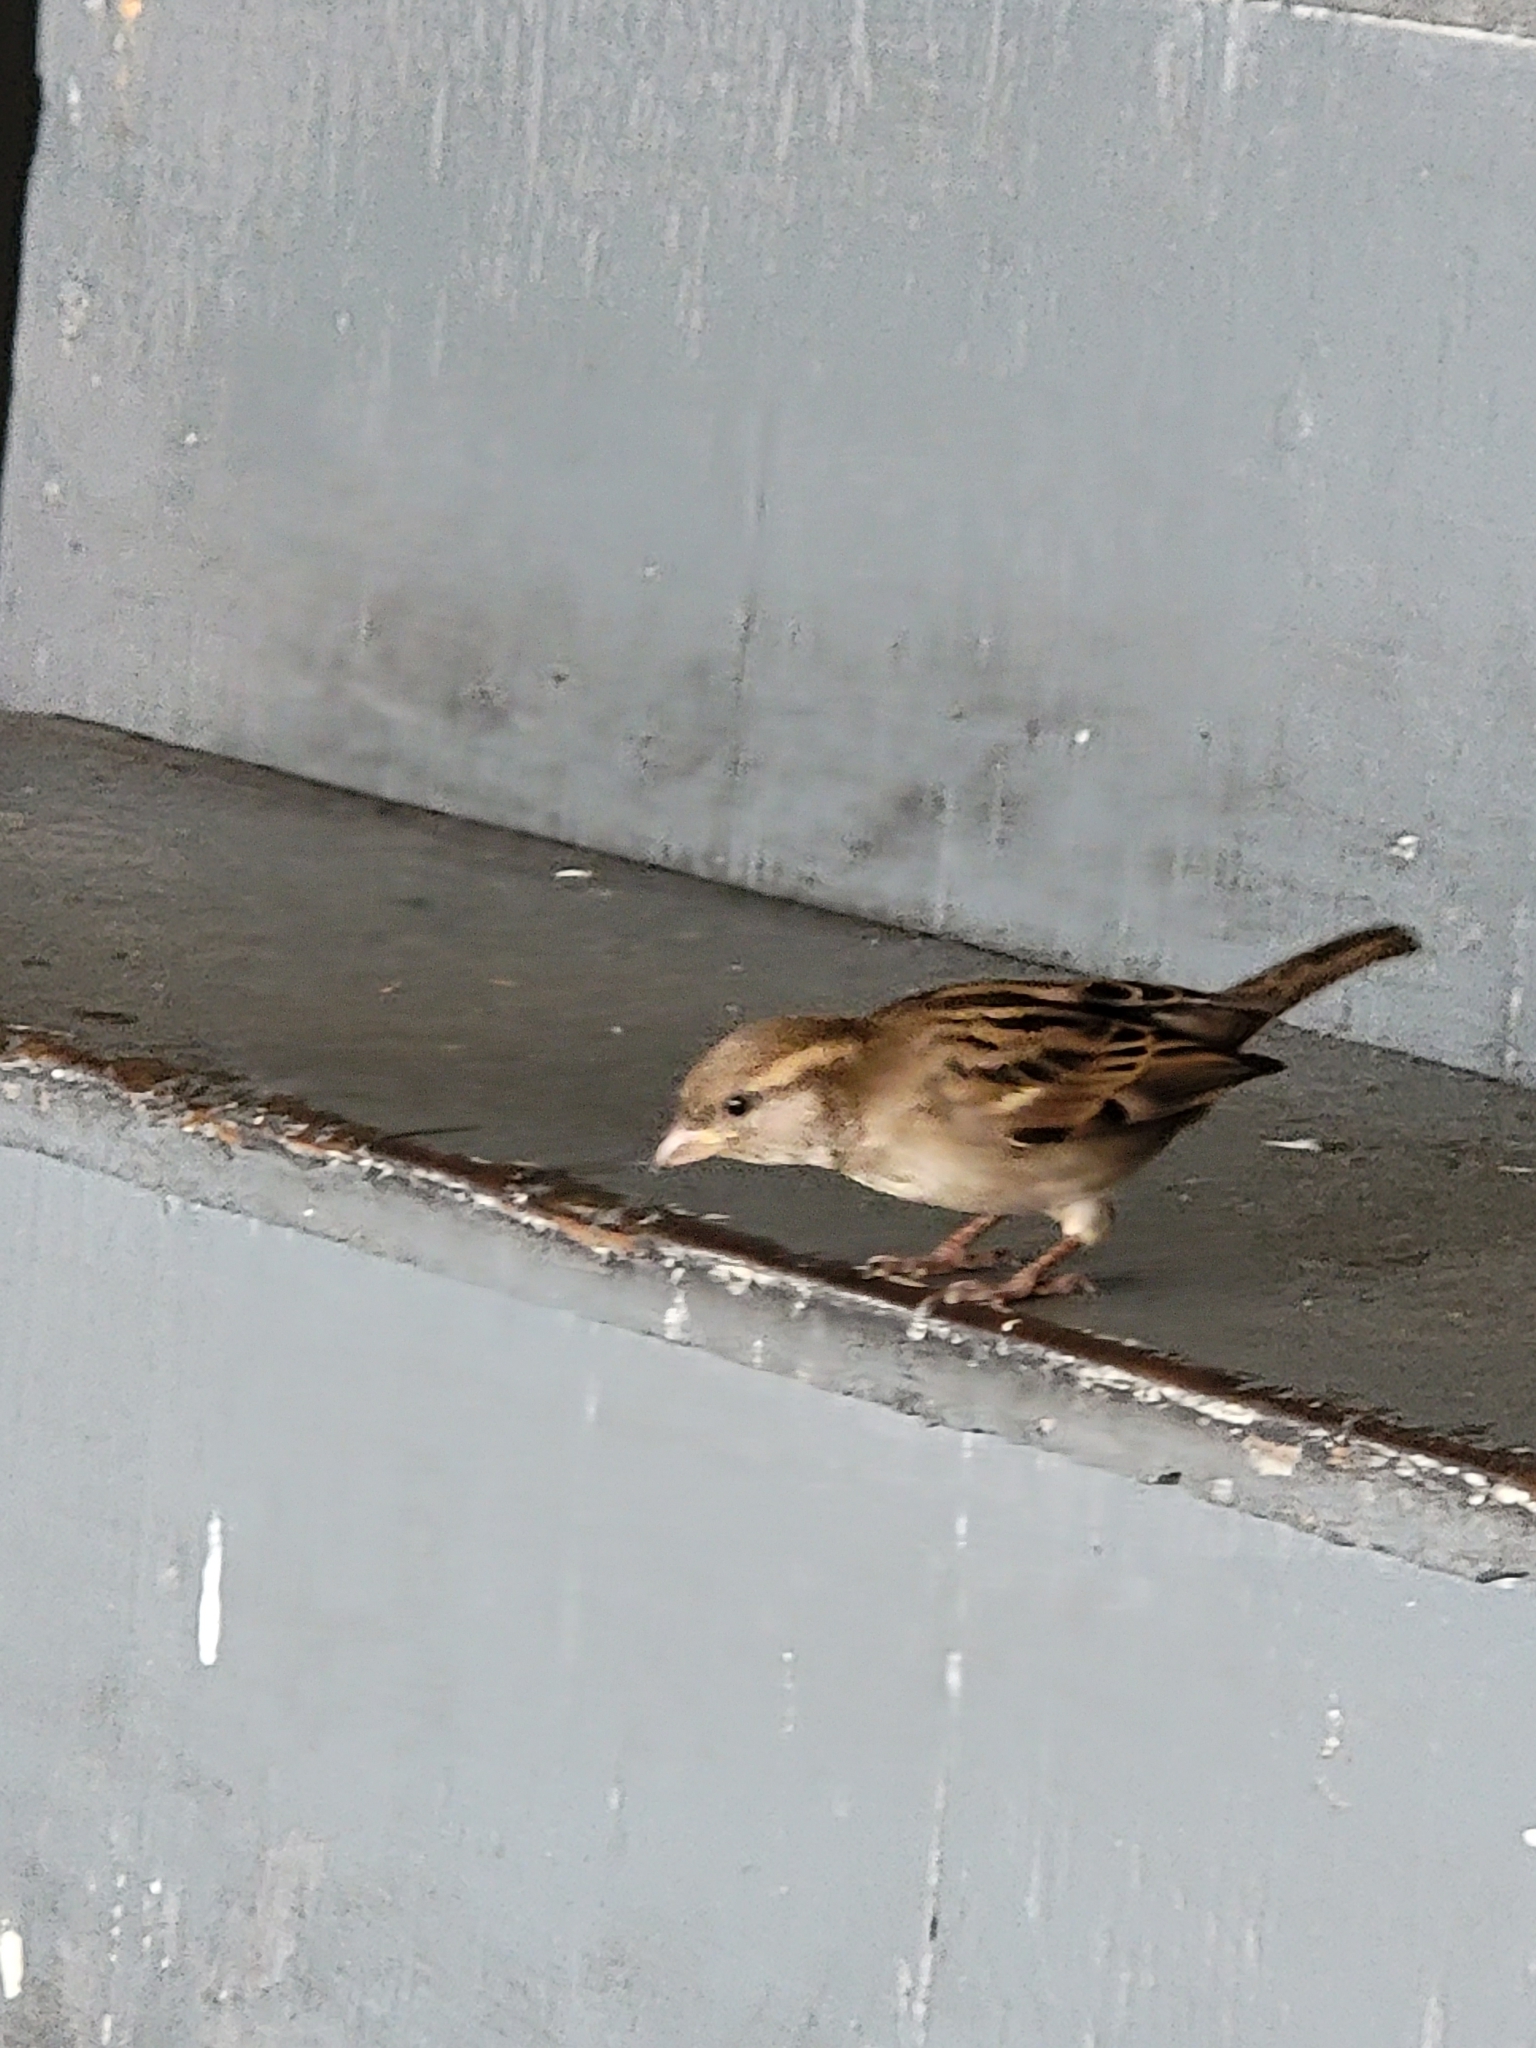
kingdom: Animalia
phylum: Chordata
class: Aves
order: Passeriformes
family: Passeridae
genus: Passer
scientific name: Passer domesticus
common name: House sparrow
